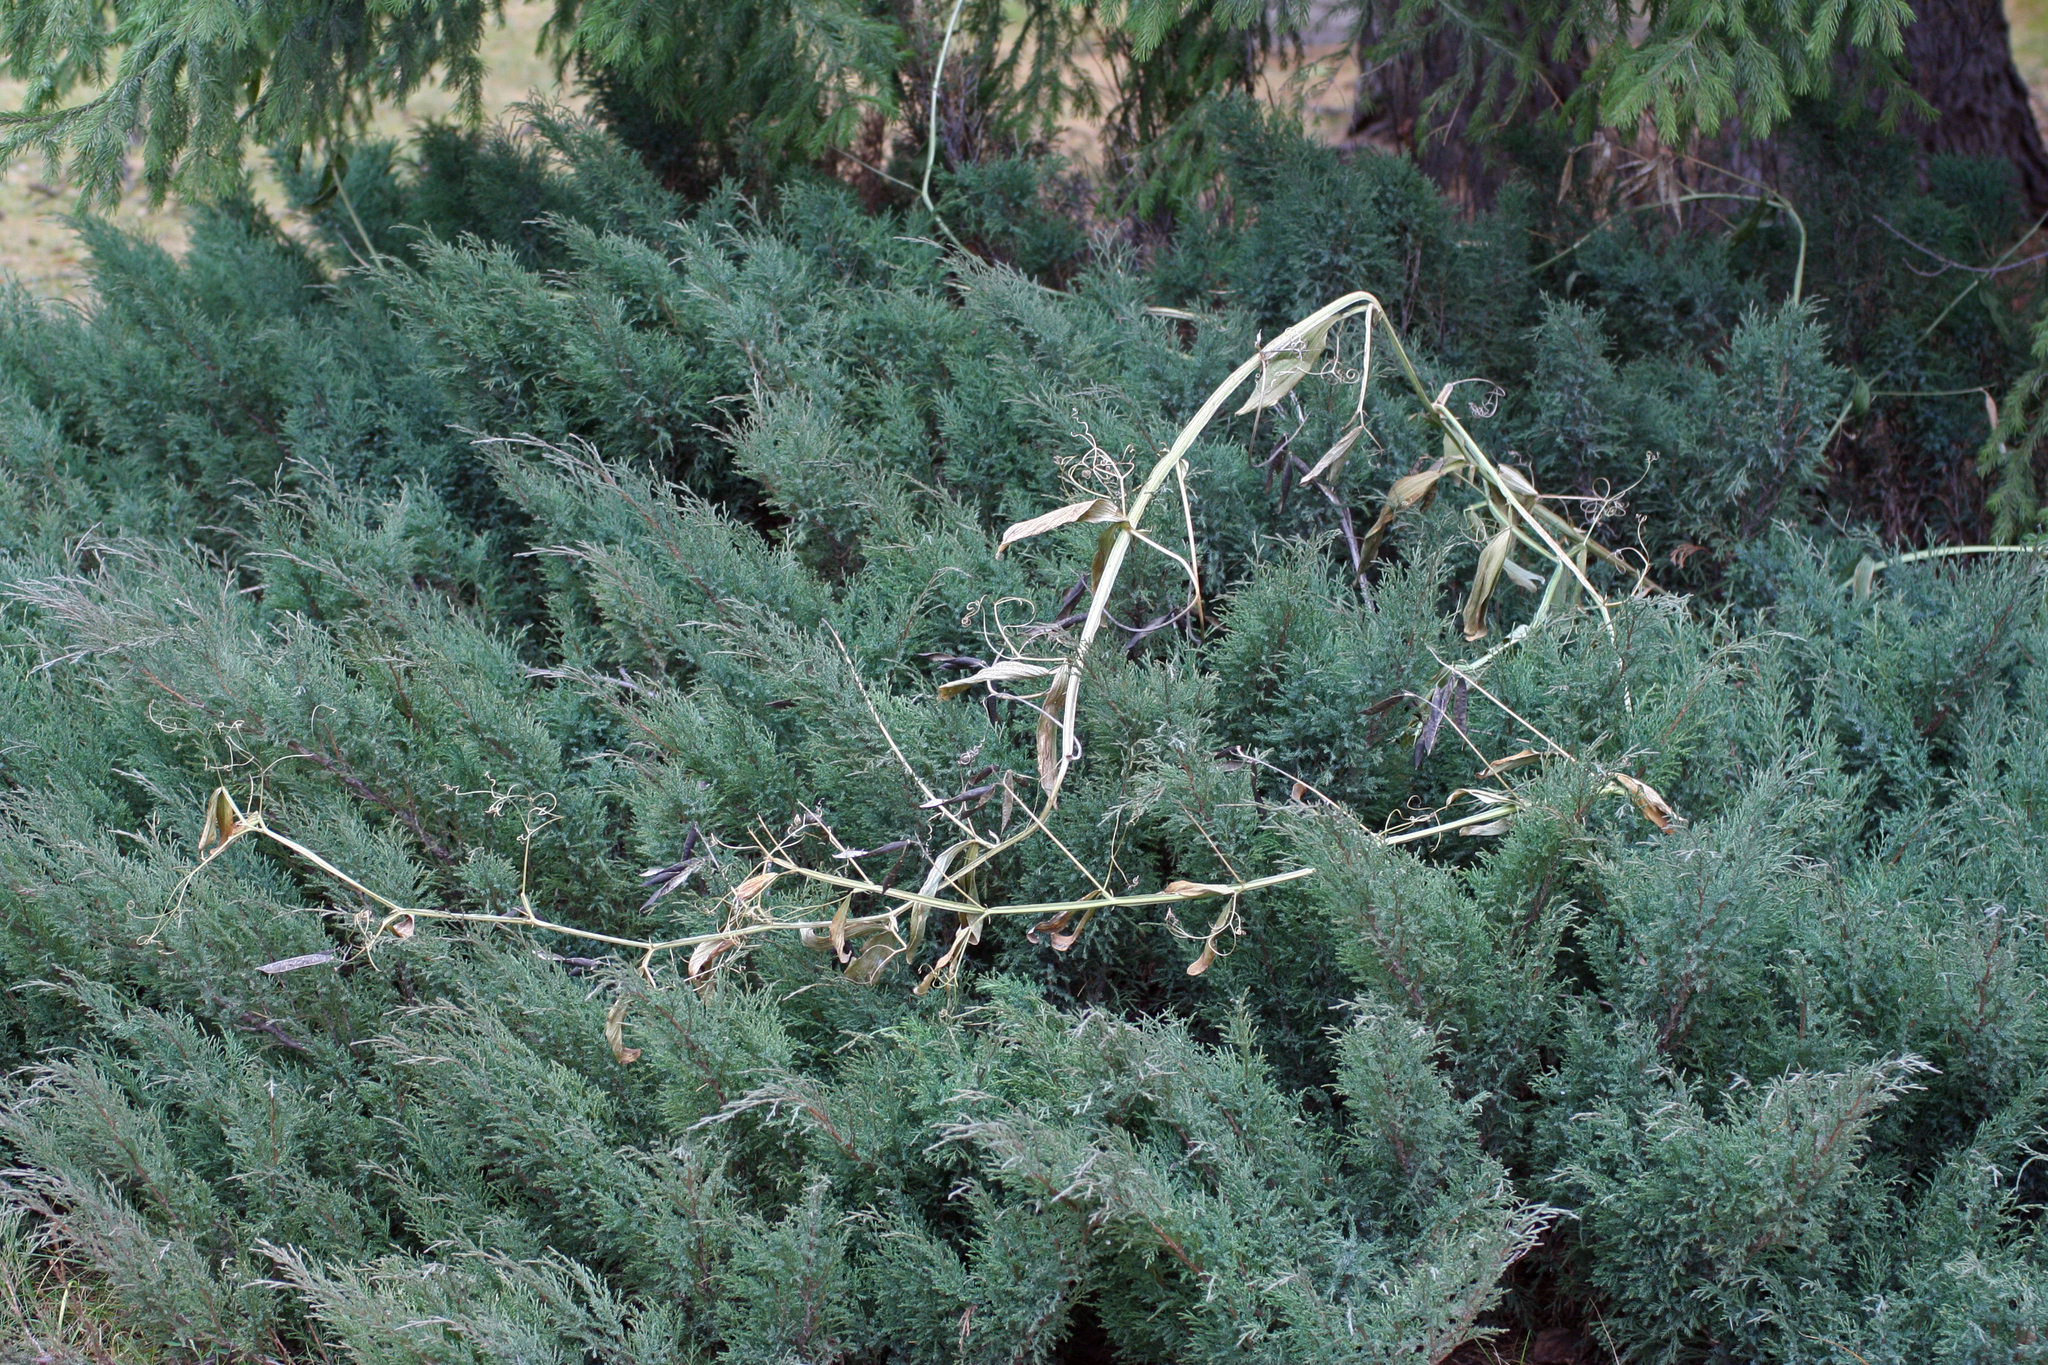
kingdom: Plantae
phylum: Tracheophyta
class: Magnoliopsida
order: Fabales
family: Fabaceae
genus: Lathyrus
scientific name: Lathyrus sylvestris
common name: Flat pea
